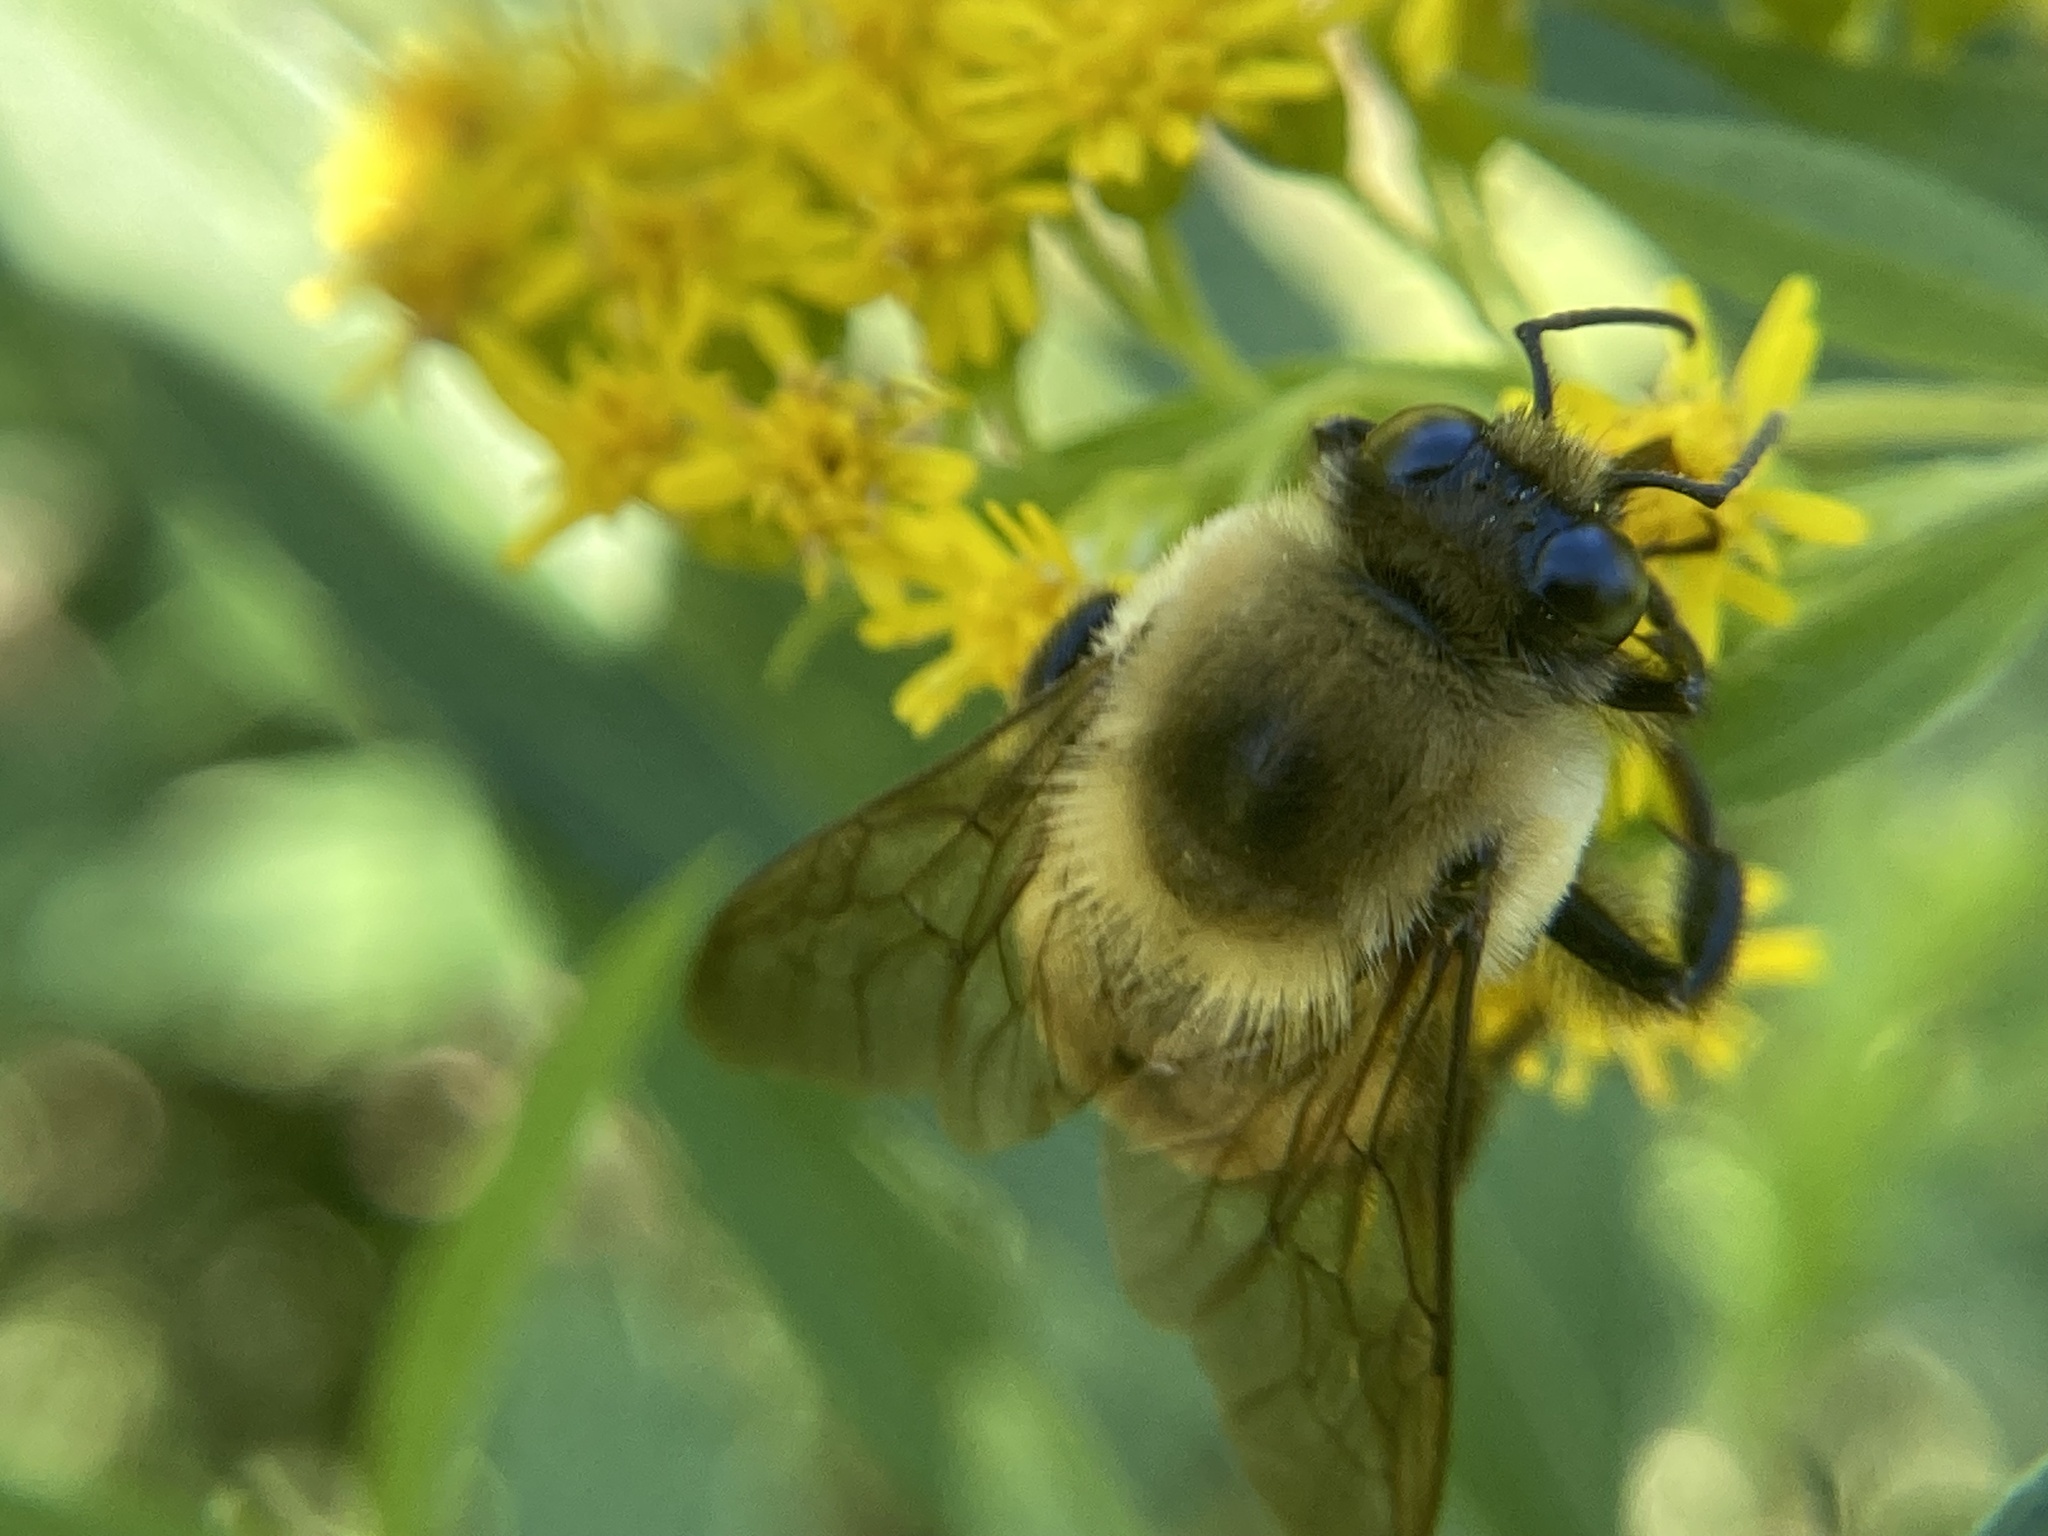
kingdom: Animalia
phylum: Arthropoda
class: Insecta
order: Hymenoptera
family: Apidae
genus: Bombus
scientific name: Bombus griseocollis
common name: Brown-belted bumble bee
